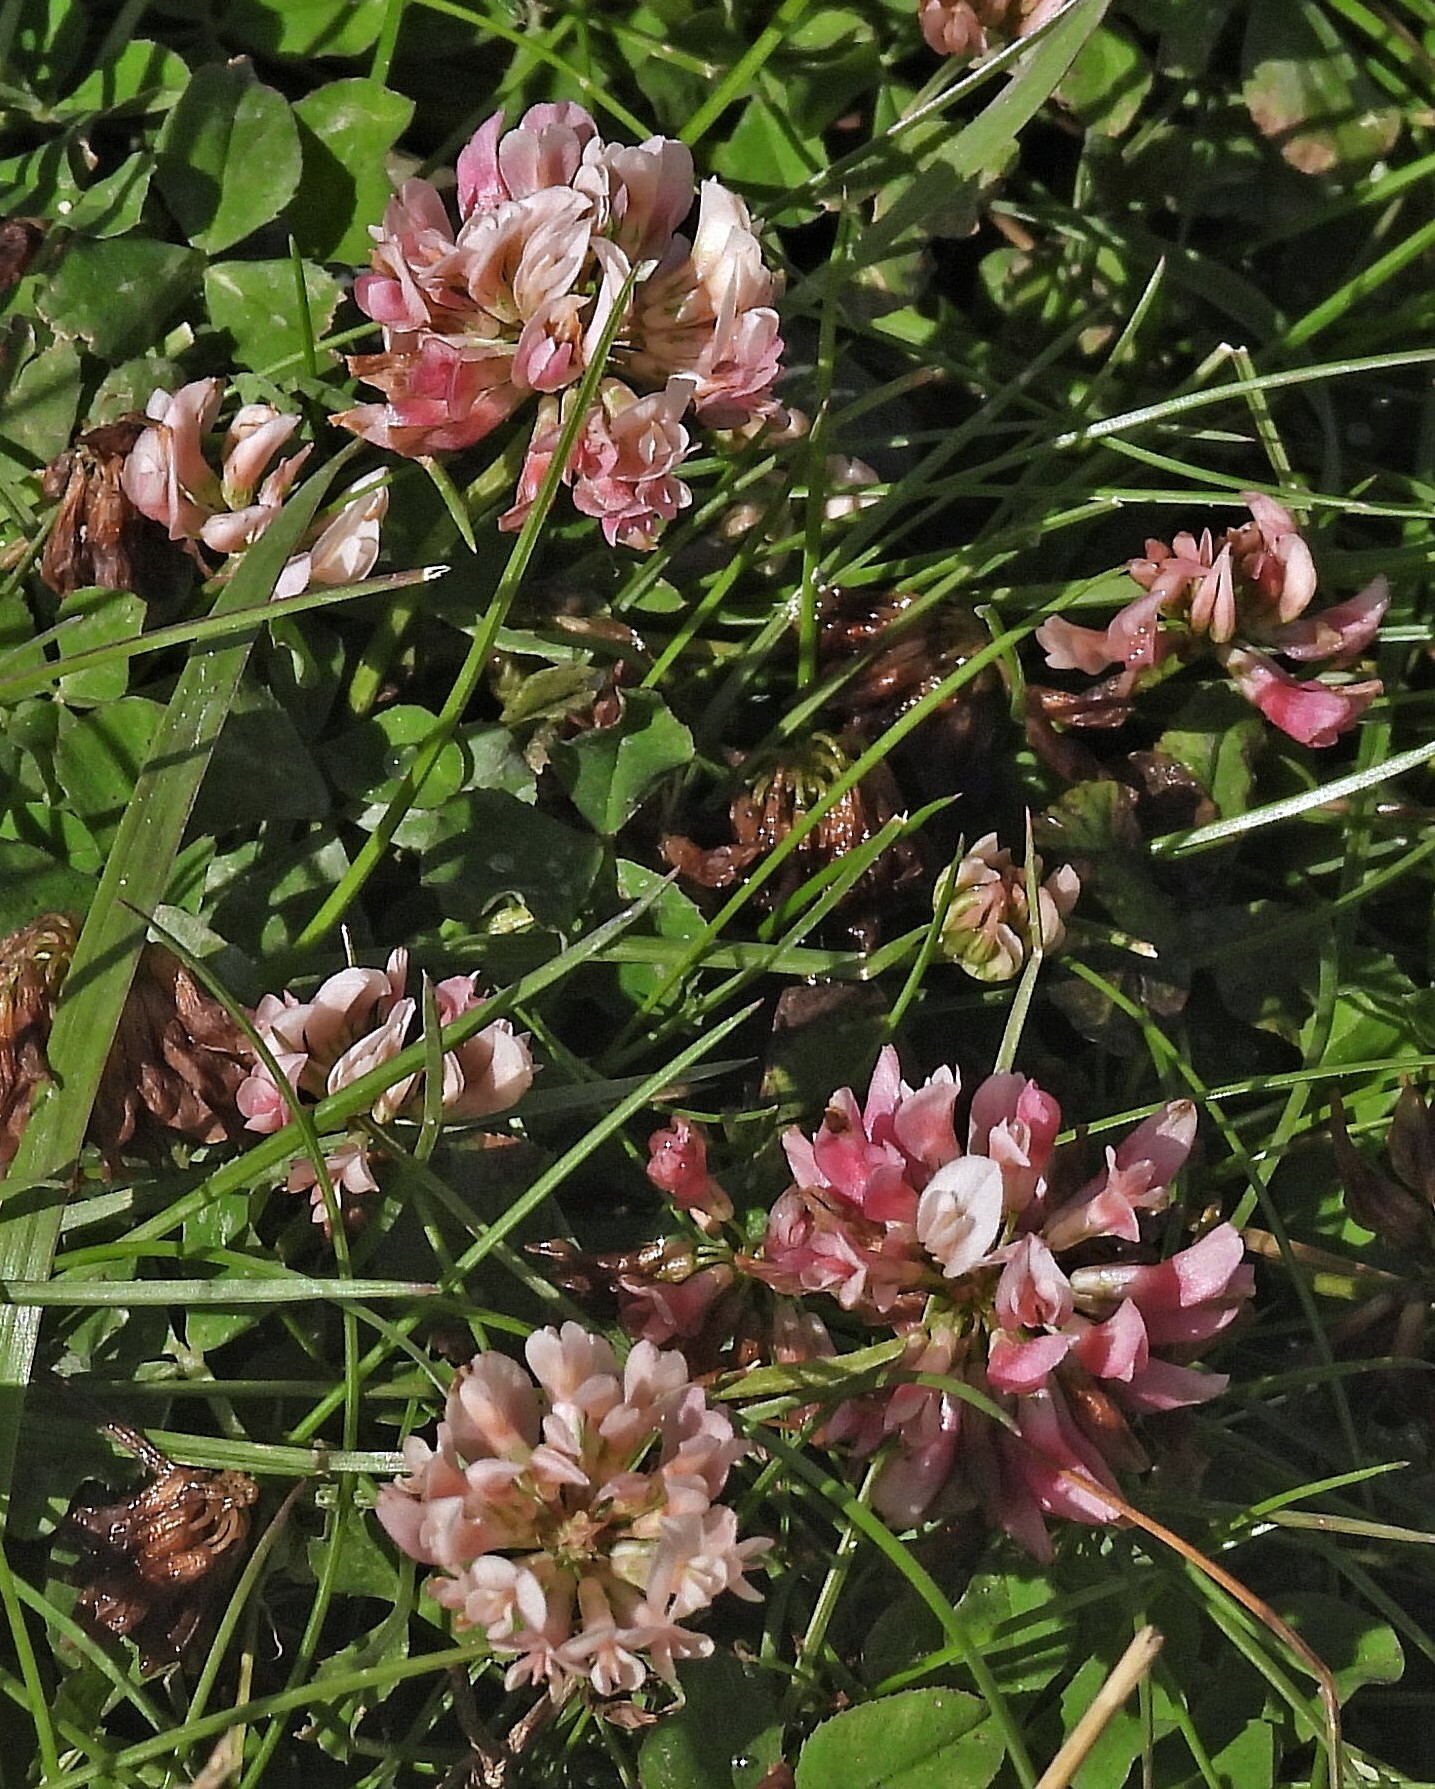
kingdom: Plantae
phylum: Tracheophyta
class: Magnoliopsida
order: Fabales
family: Fabaceae
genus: Trifolium
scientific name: Trifolium repens
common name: White clover
